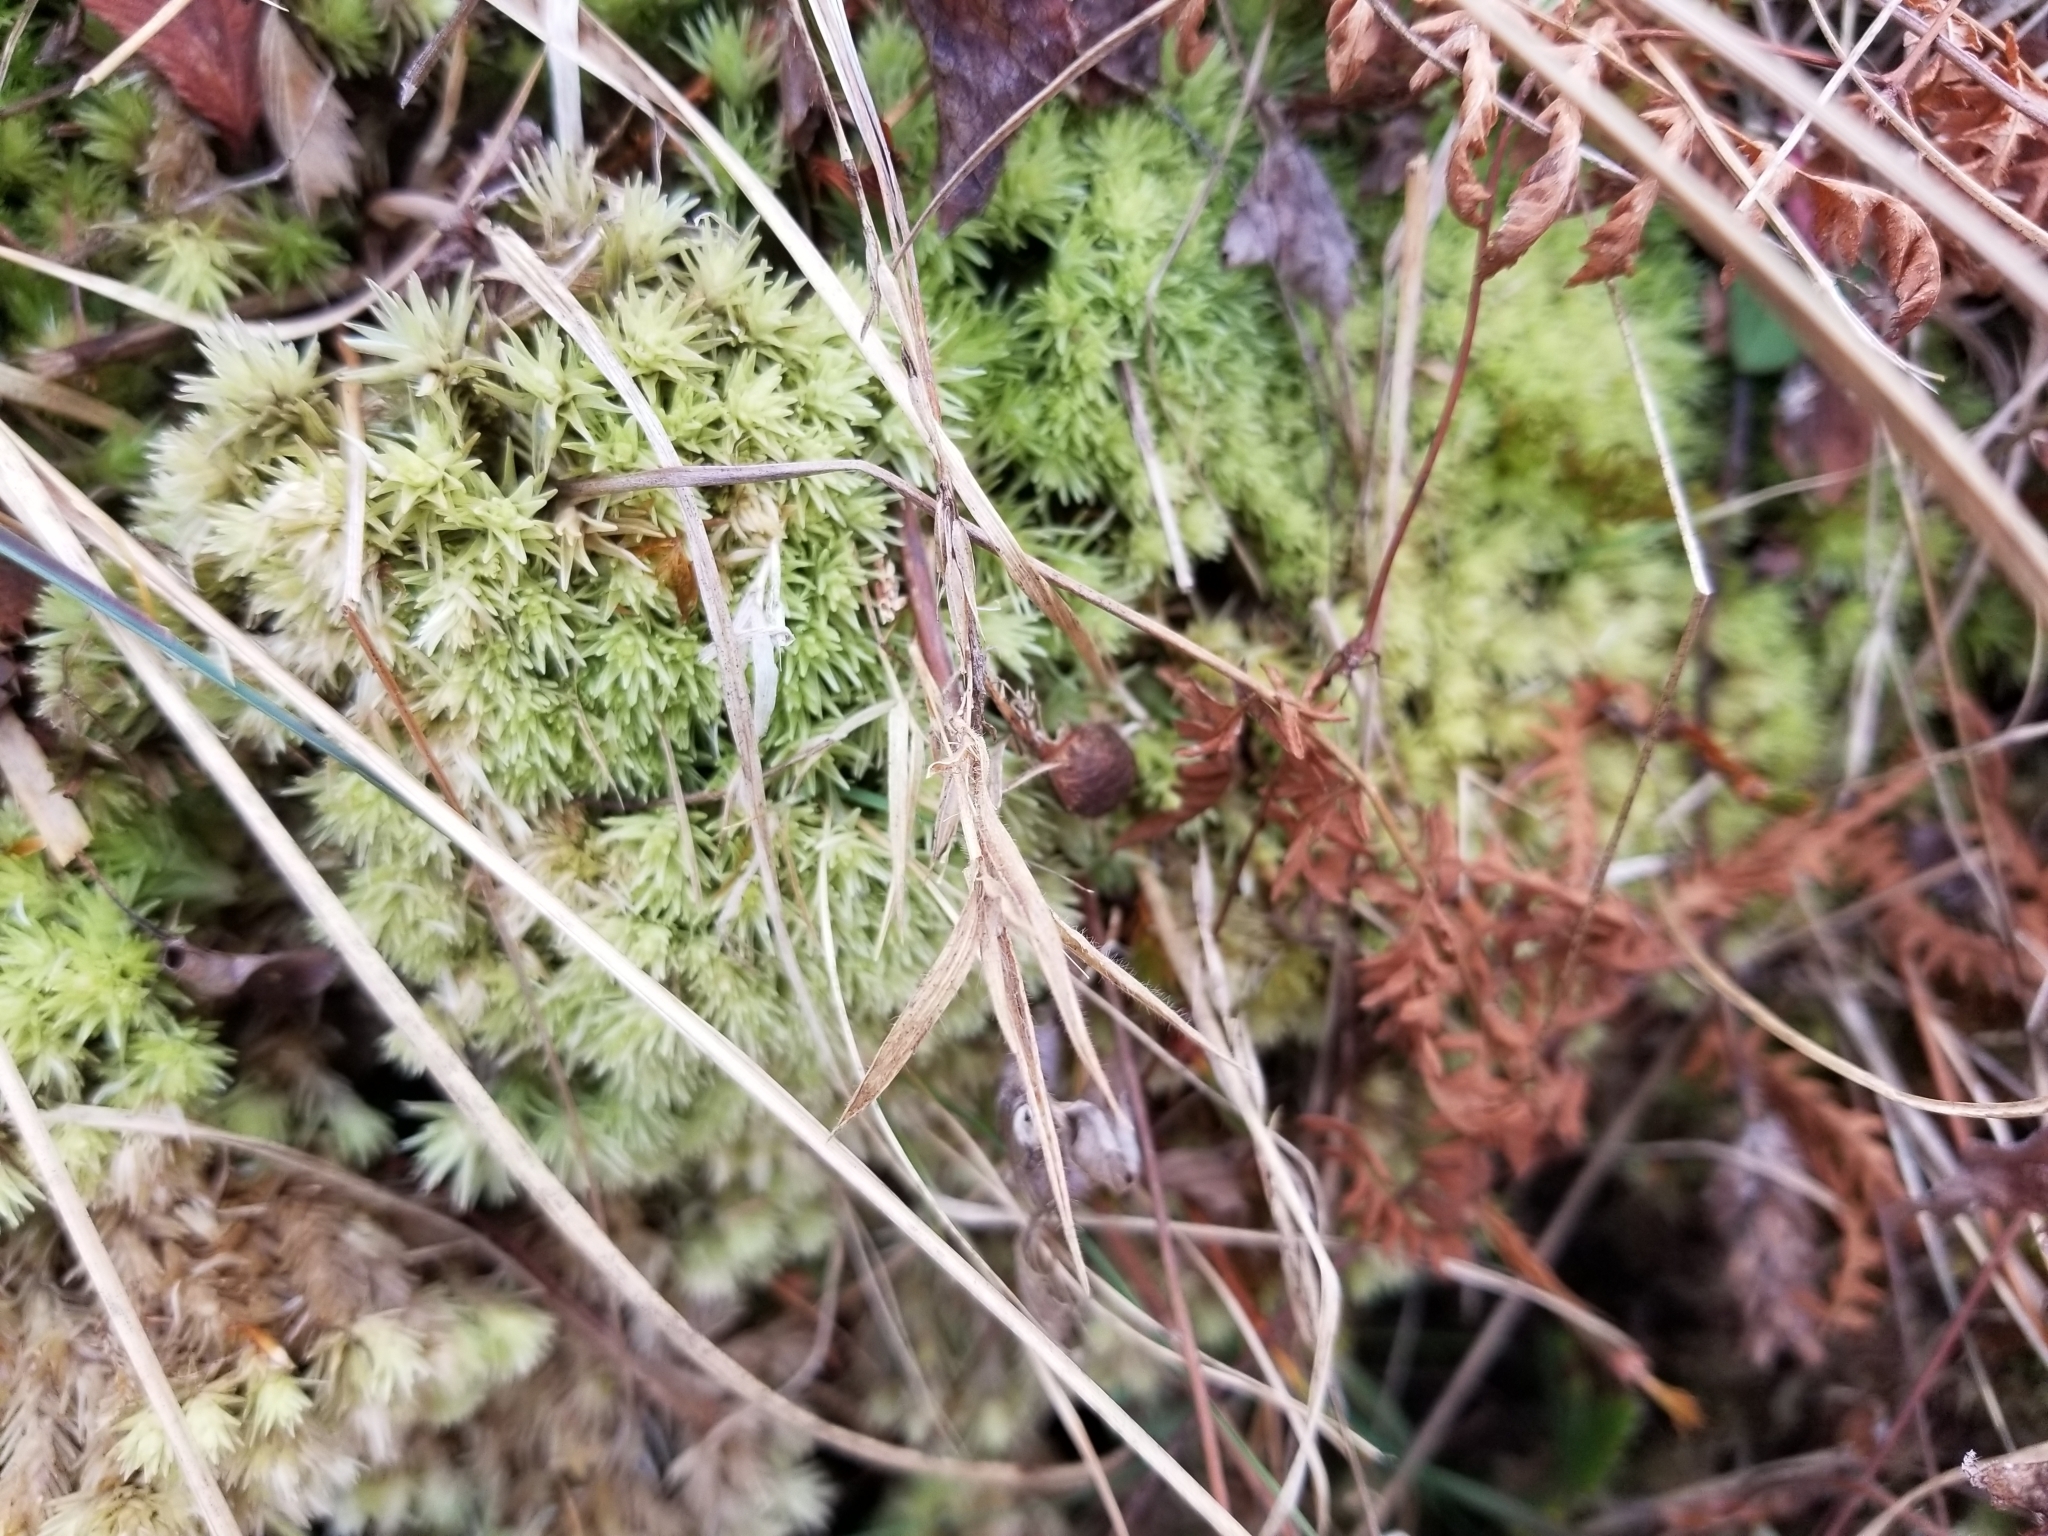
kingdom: Plantae
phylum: Bryophyta
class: Bryopsida
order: Dicranales
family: Leucobryaceae
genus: Leucobryum
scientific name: Leucobryum glaucum
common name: Large white-moss
